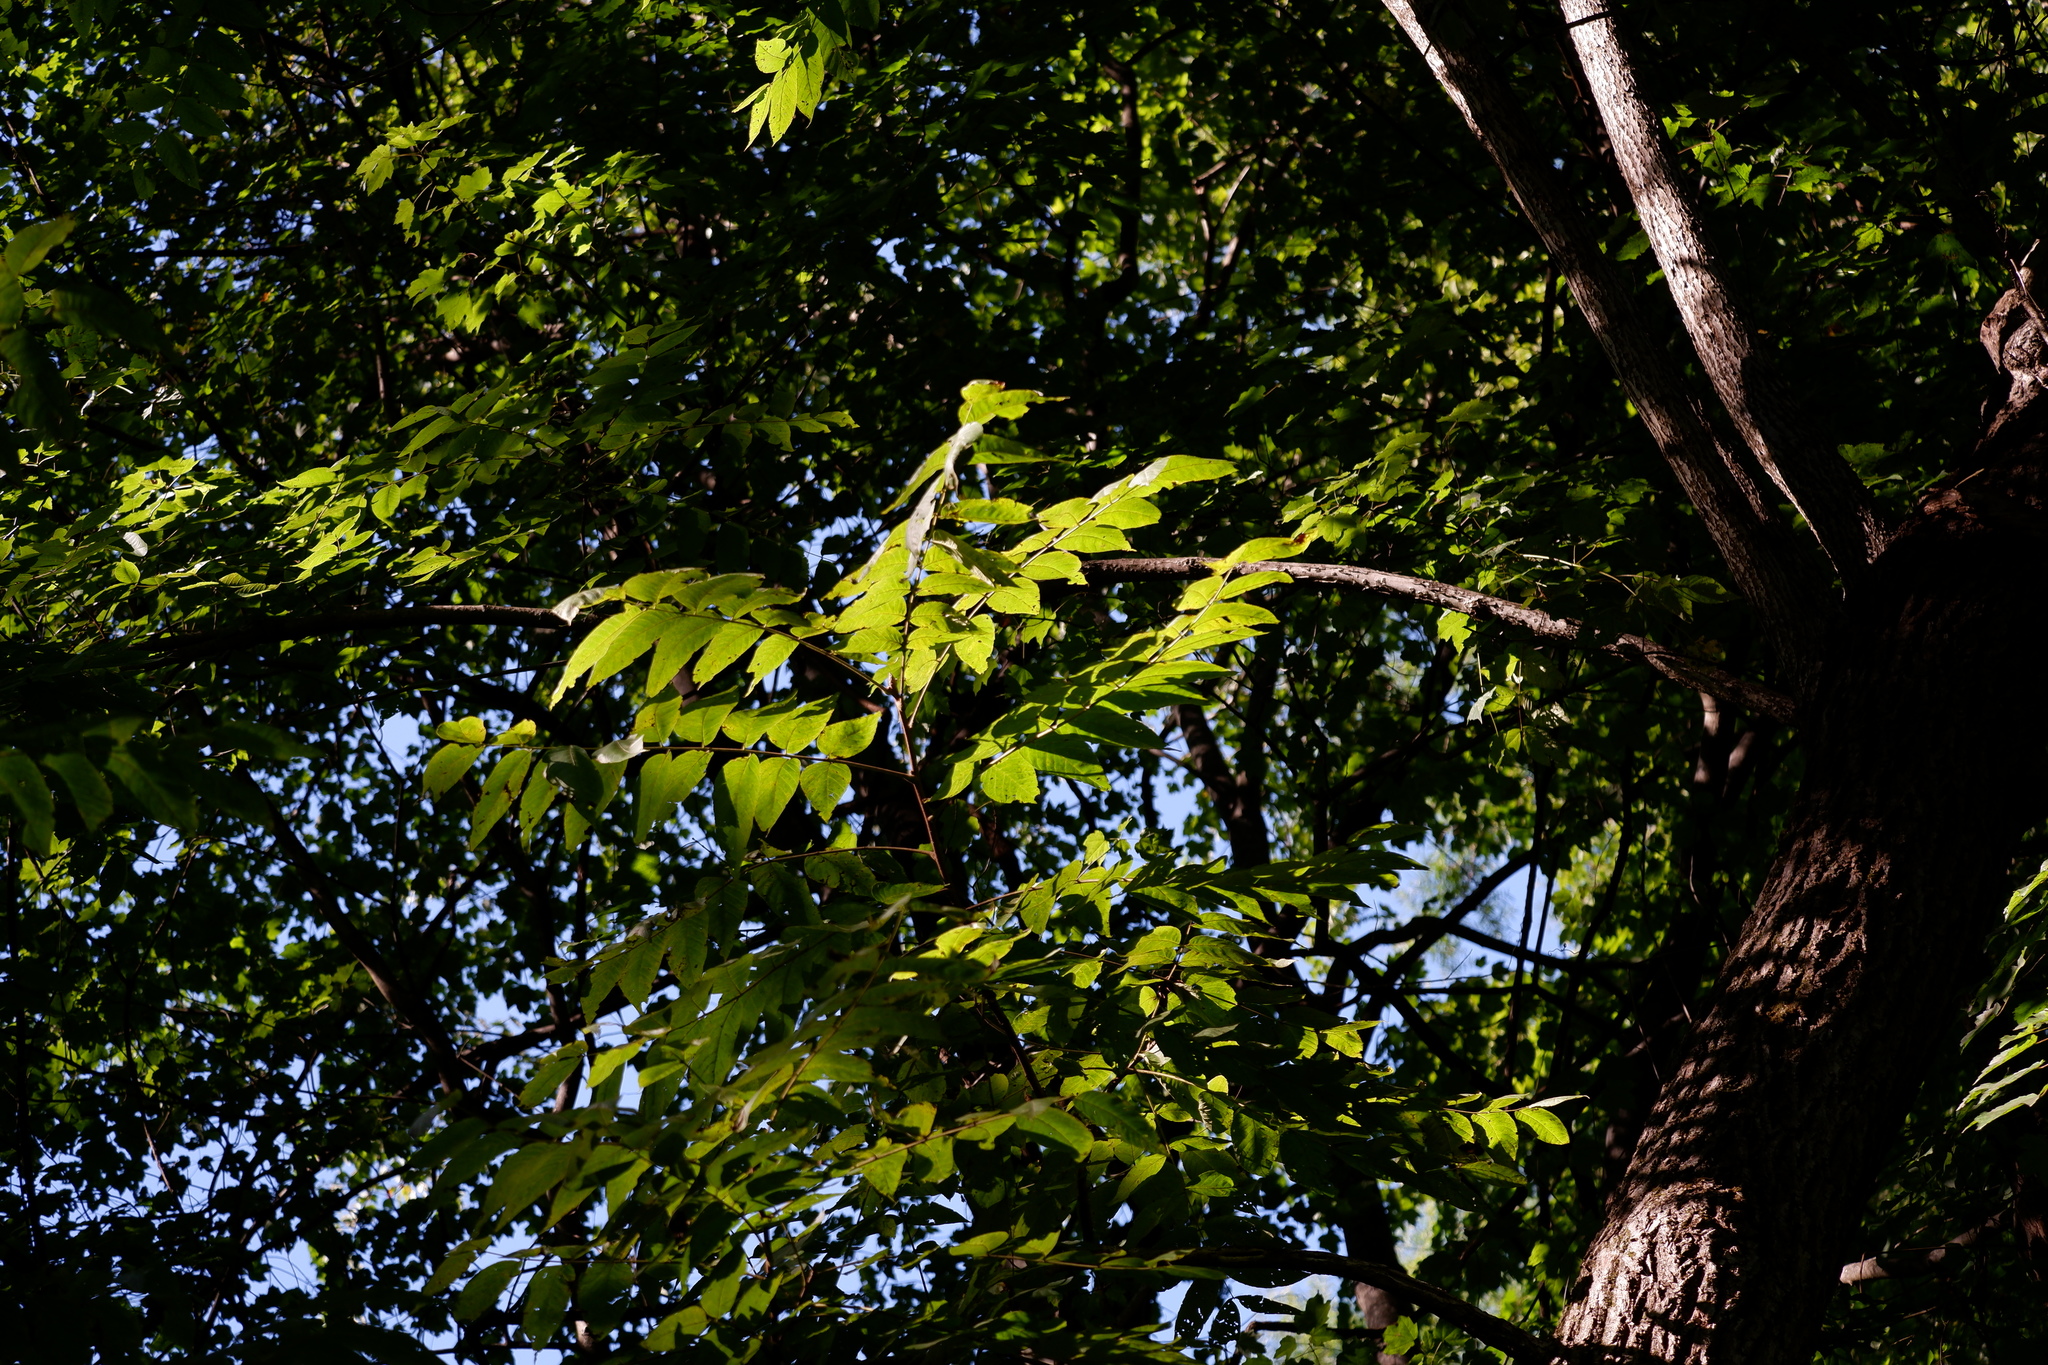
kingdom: Plantae
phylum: Tracheophyta
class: Magnoliopsida
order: Fagales
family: Juglandaceae
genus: Juglans
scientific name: Juglans nigra
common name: Black walnut
